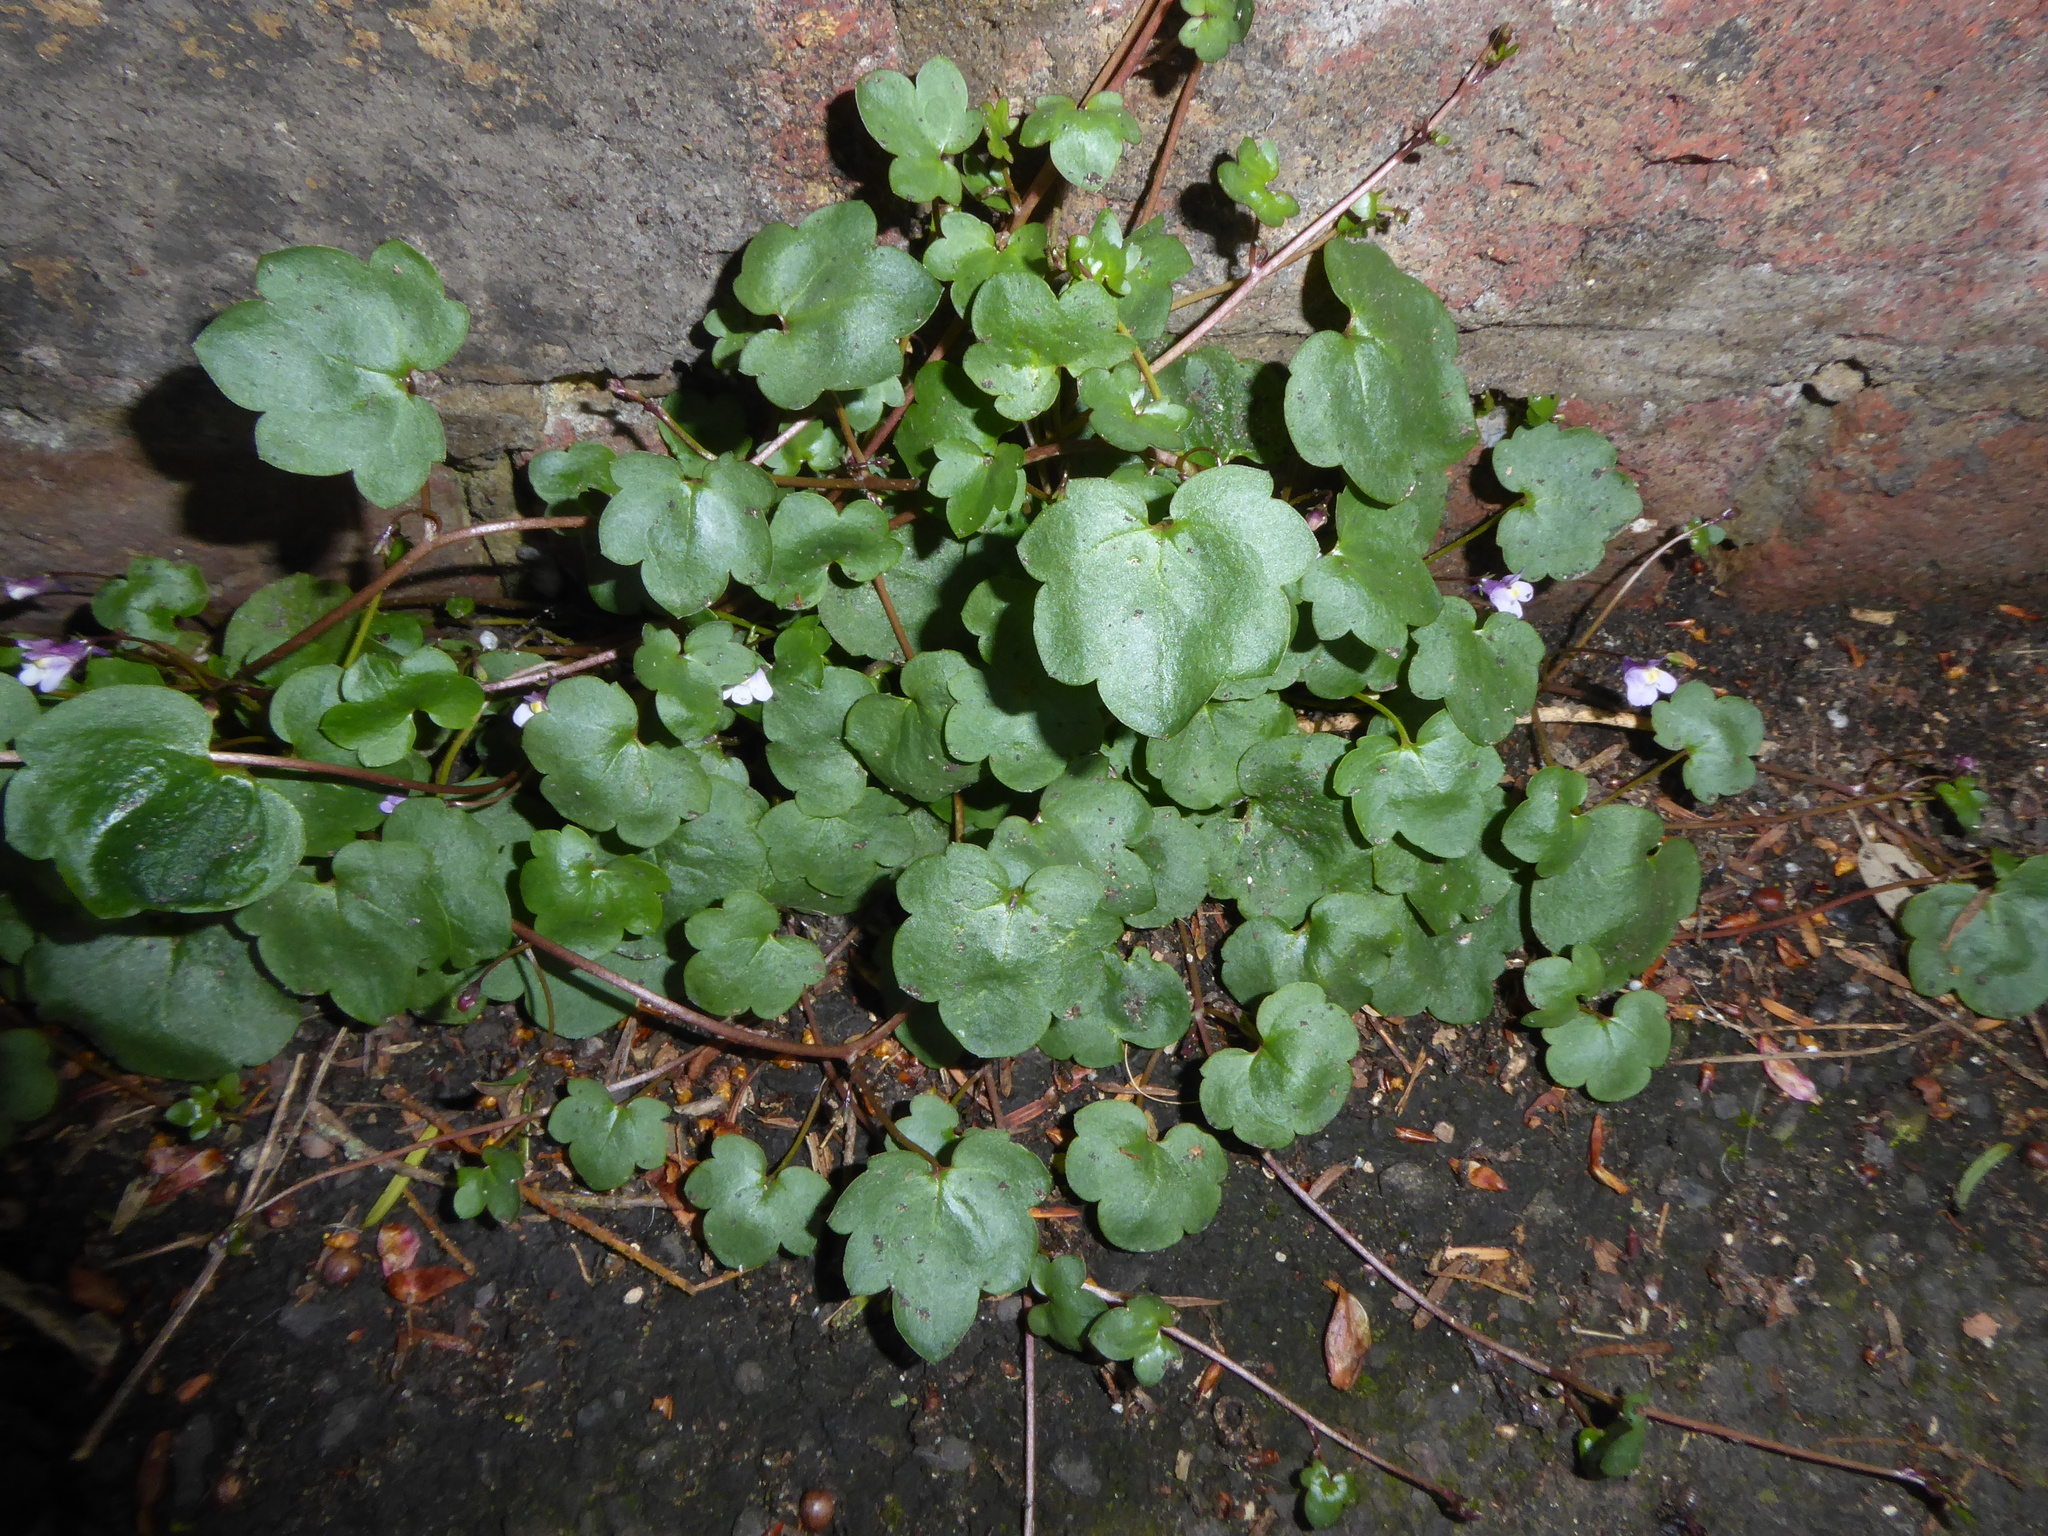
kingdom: Plantae
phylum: Tracheophyta
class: Magnoliopsida
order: Lamiales
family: Plantaginaceae
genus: Cymbalaria
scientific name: Cymbalaria muralis
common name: Ivy-leaved toadflax
